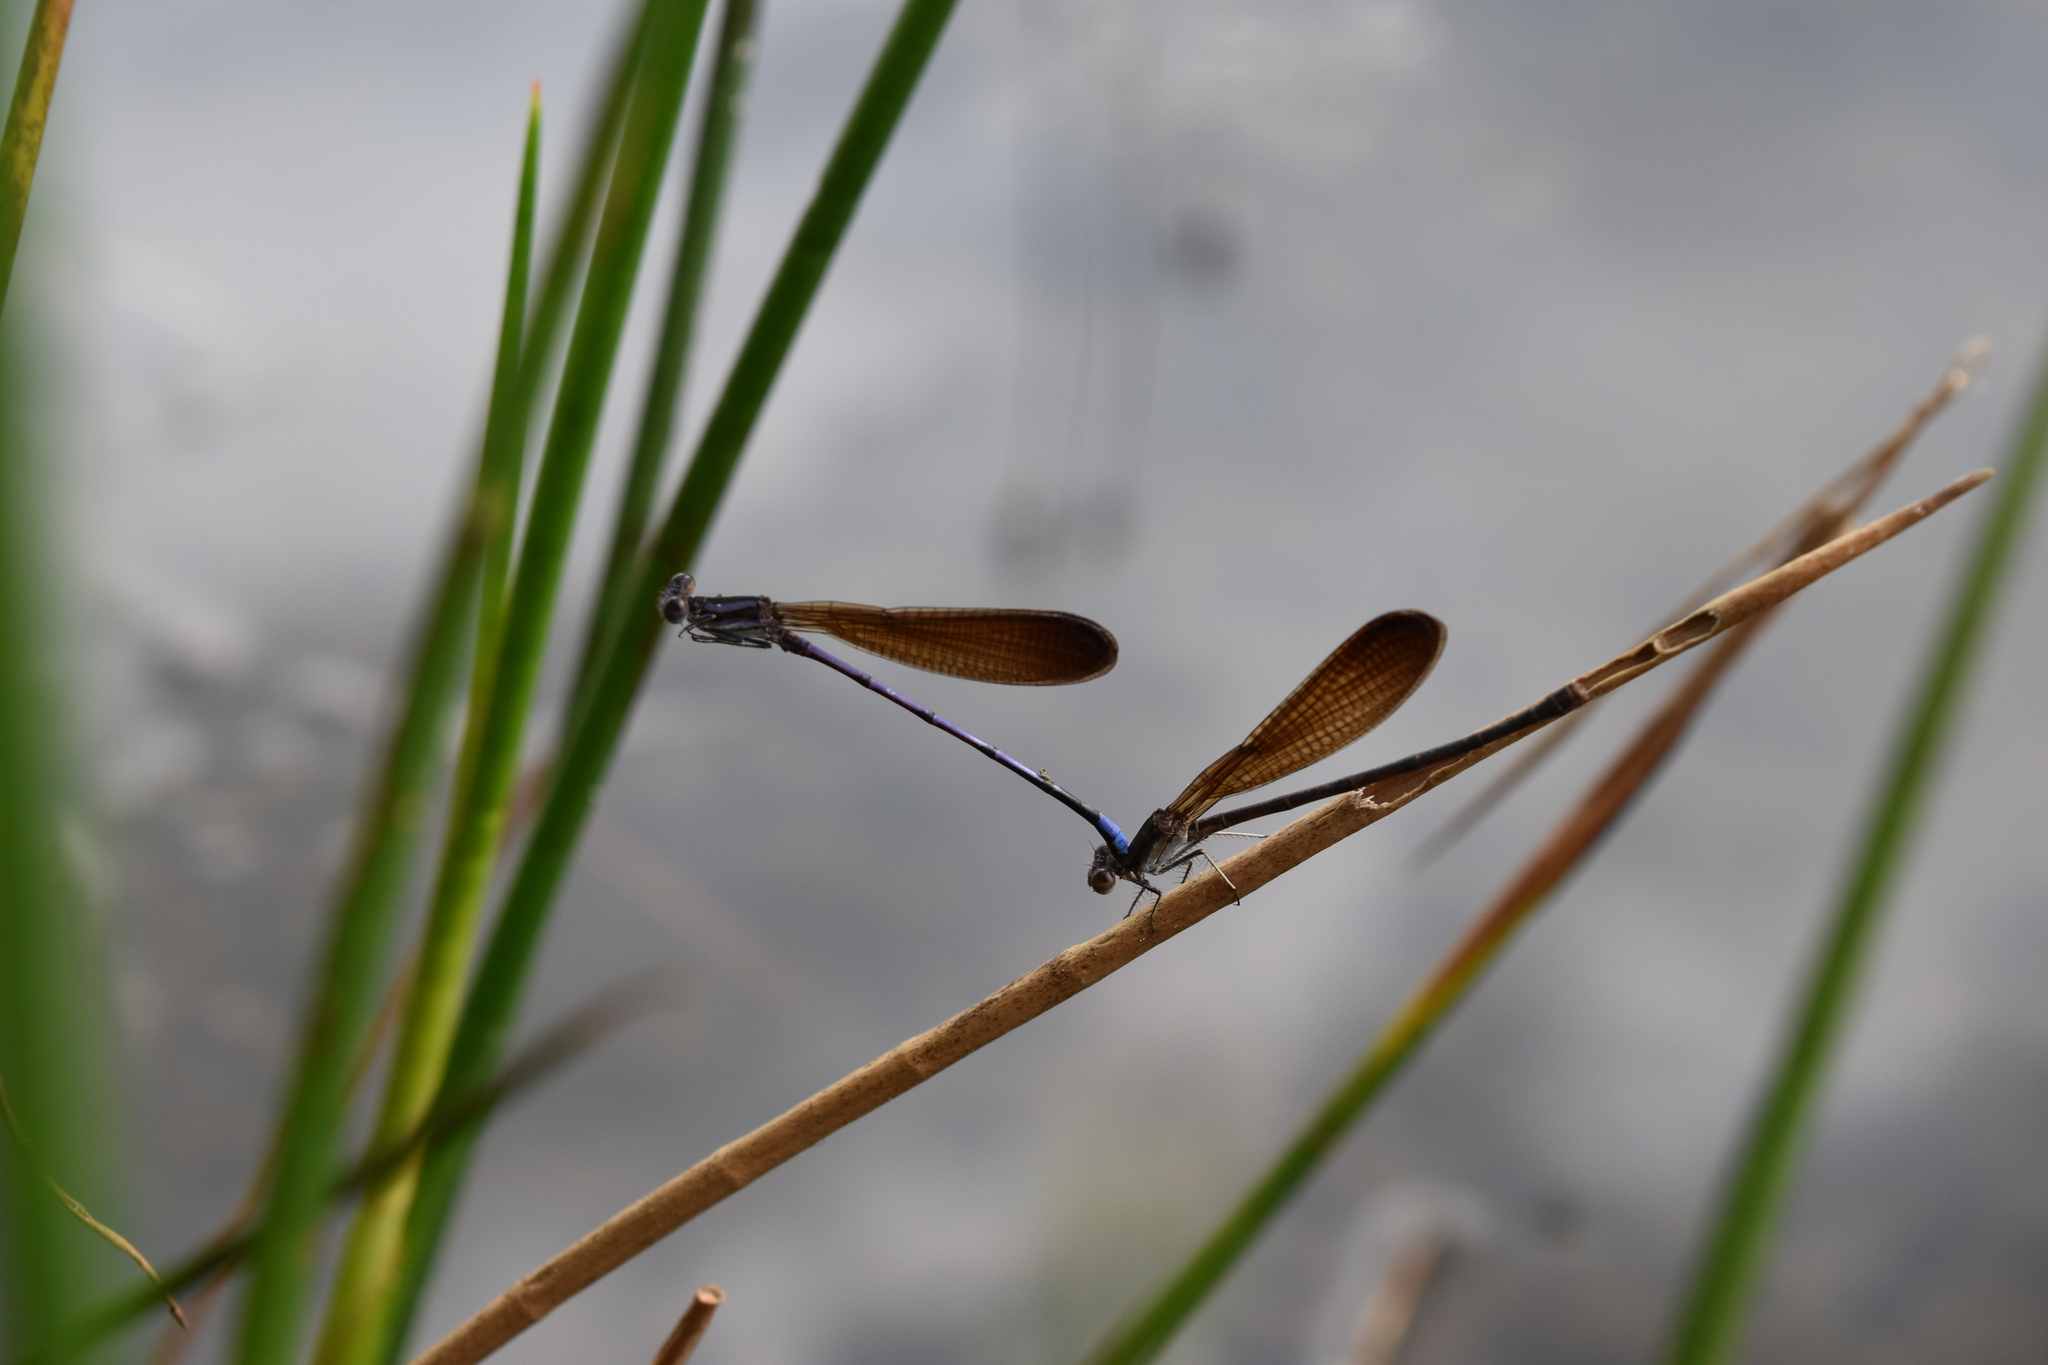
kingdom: Animalia
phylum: Arthropoda
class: Insecta
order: Odonata
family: Coenagrionidae
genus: Argia
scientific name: Argia fumipennis
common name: Variable dancer
